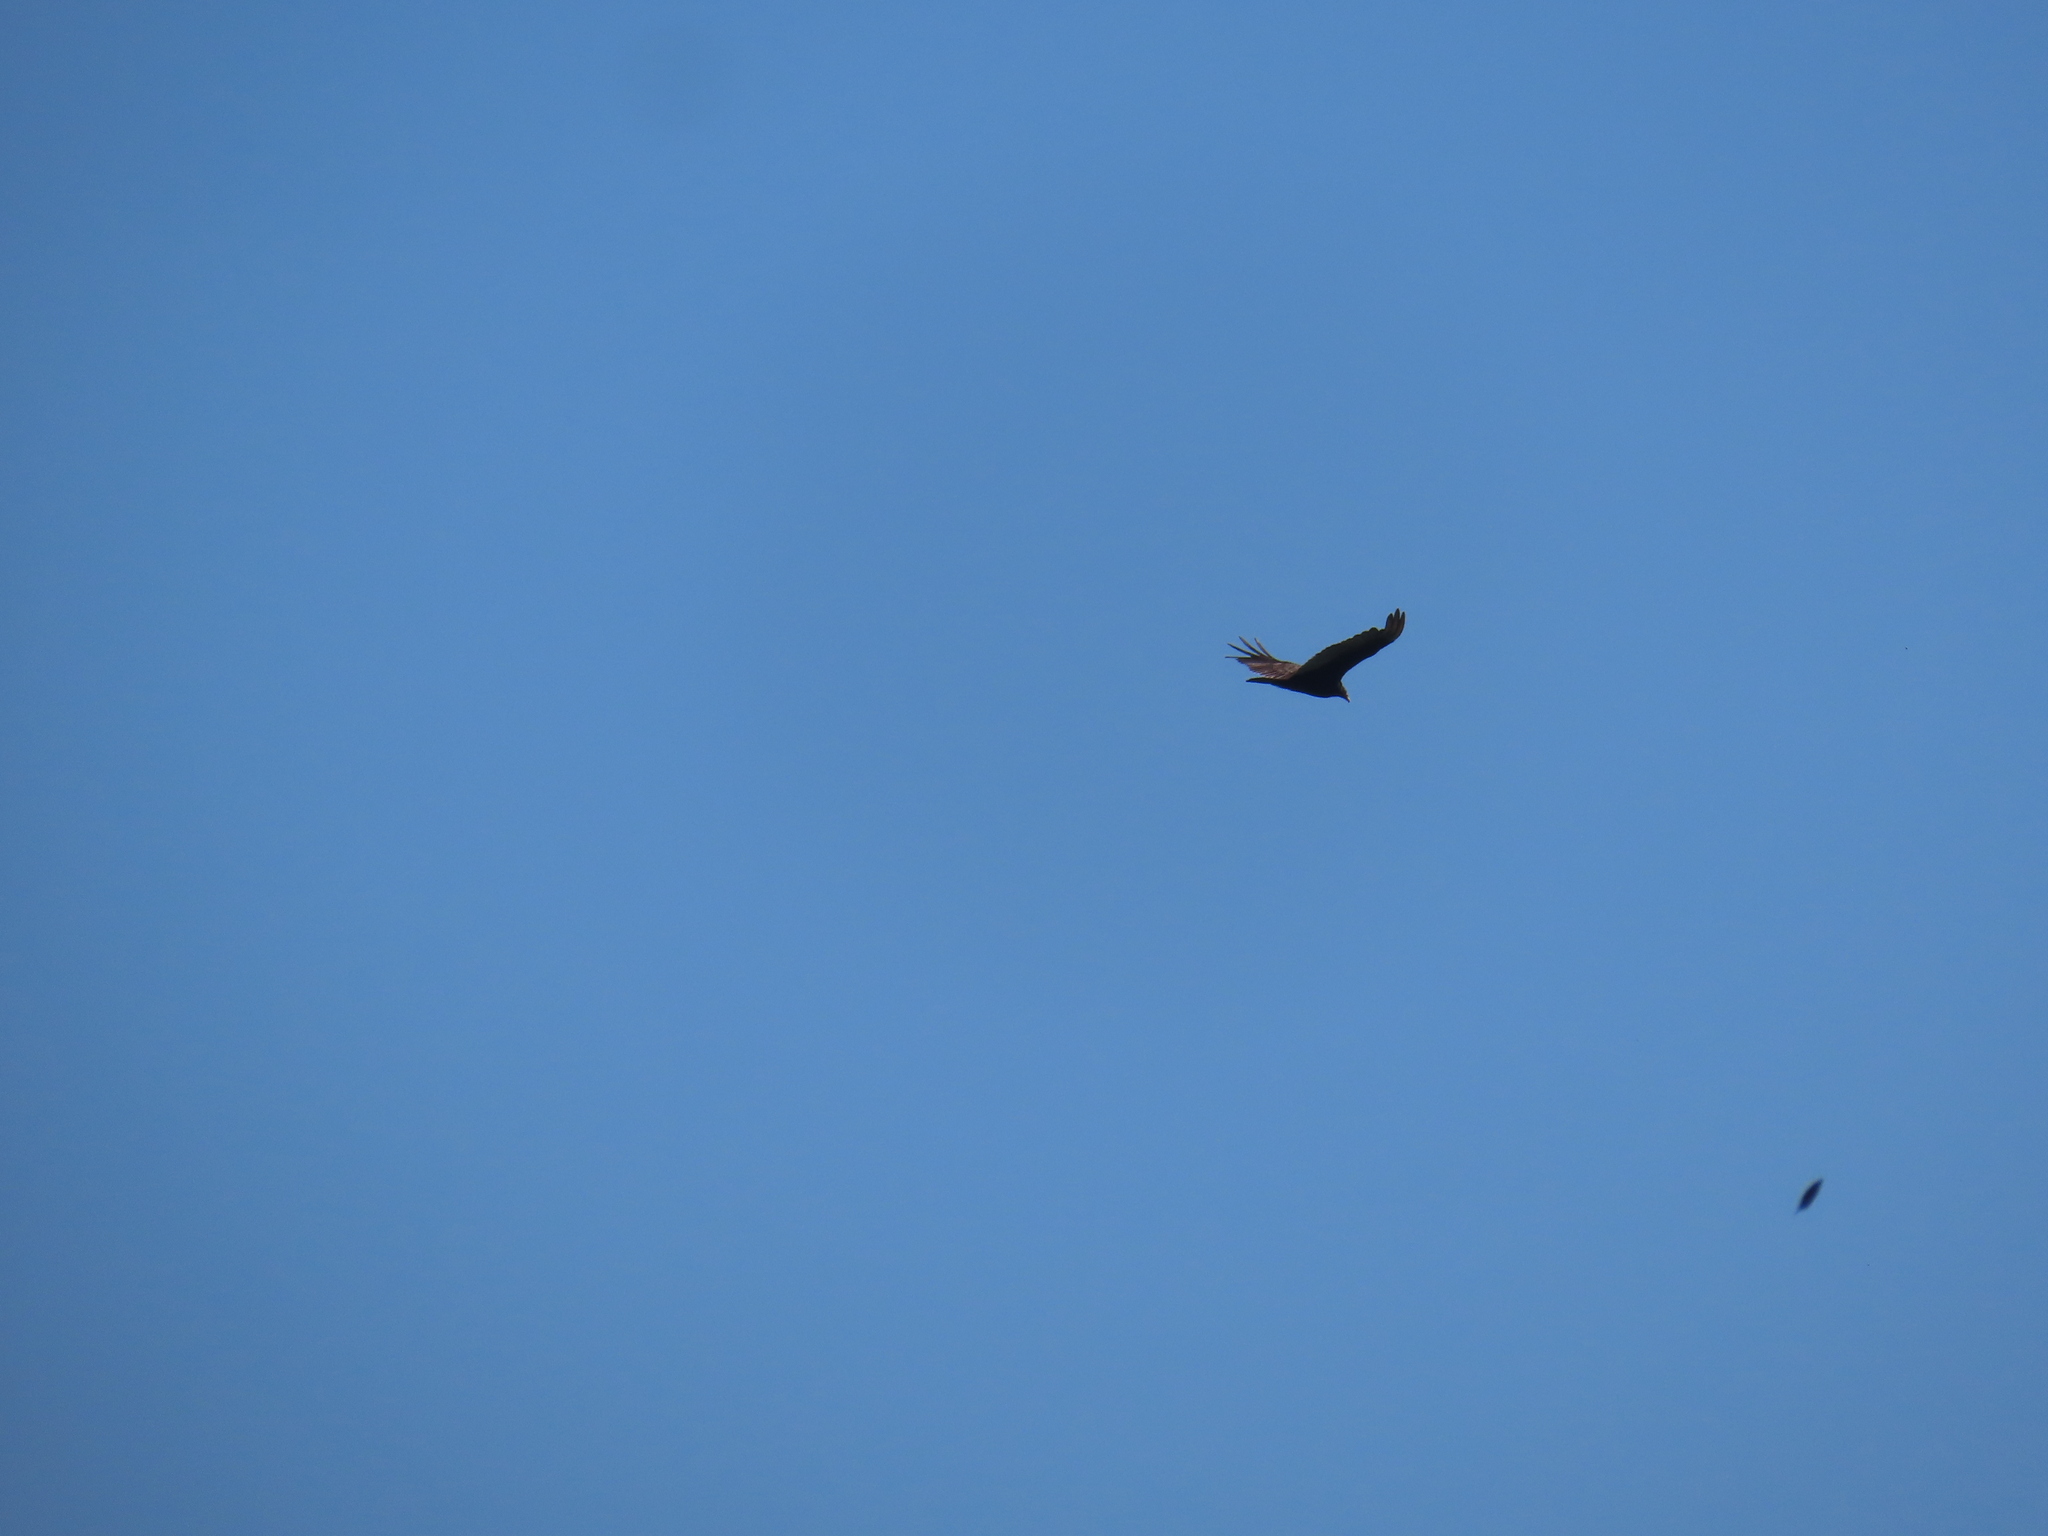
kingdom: Animalia
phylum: Chordata
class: Aves
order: Accipitriformes
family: Cathartidae
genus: Cathartes
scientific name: Cathartes aura
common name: Turkey vulture
